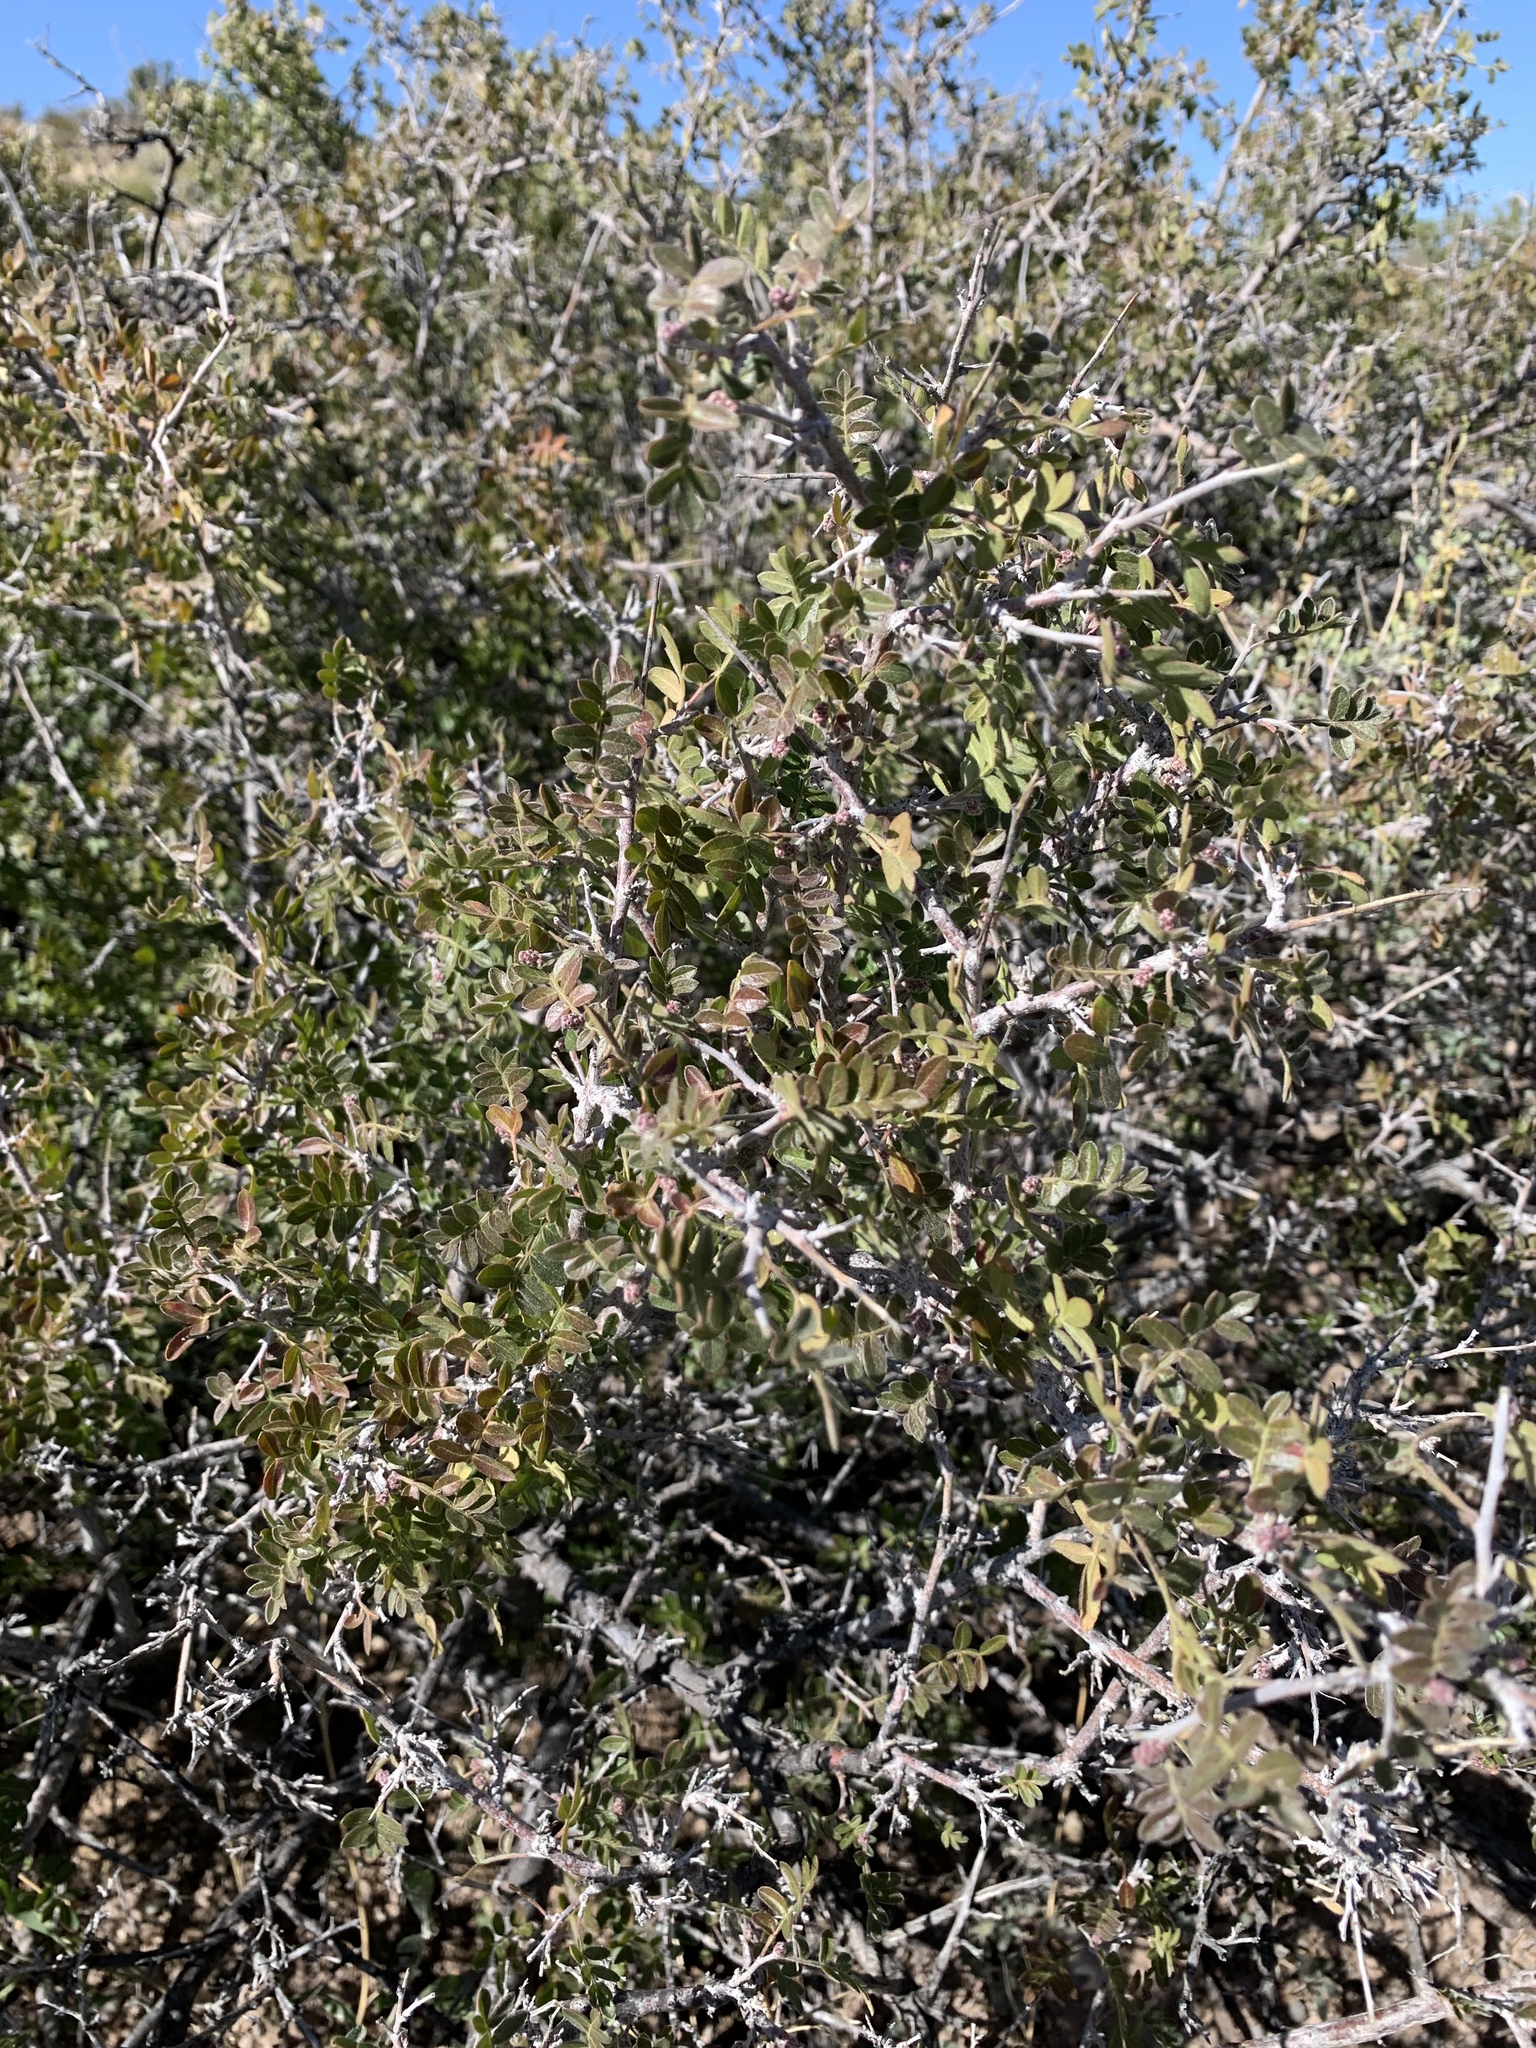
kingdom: Plantae
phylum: Tracheophyta
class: Magnoliopsida
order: Sapindales
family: Anacardiaceae
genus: Rhus
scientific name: Rhus microphylla
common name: Desert sumac
